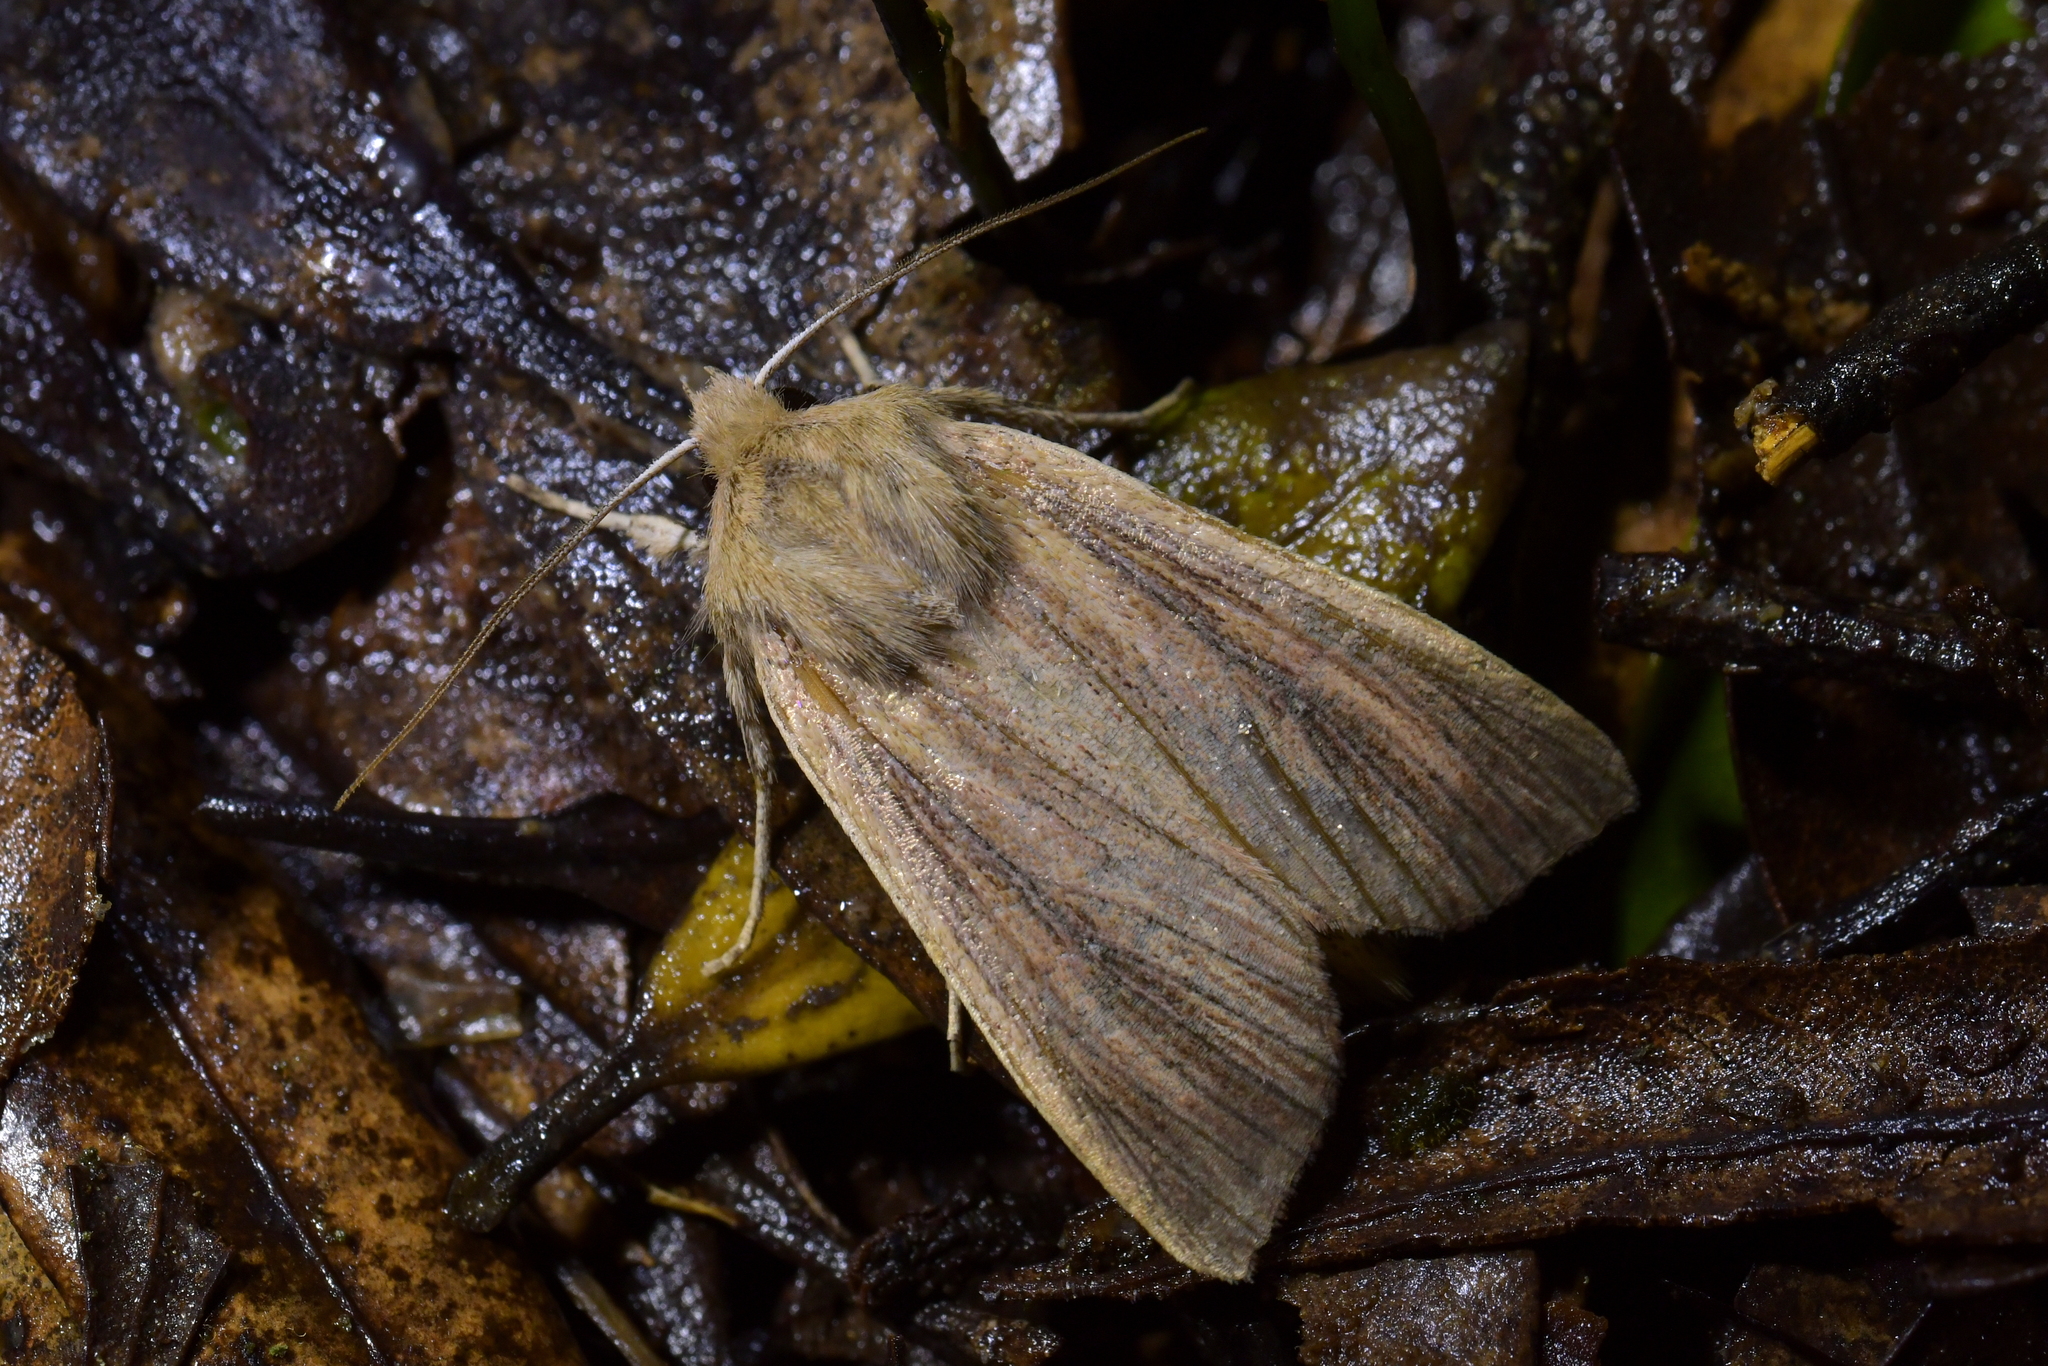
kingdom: Animalia
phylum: Arthropoda
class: Insecta
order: Lepidoptera
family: Noctuidae
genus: Ichneutica
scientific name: Ichneutica arotis
